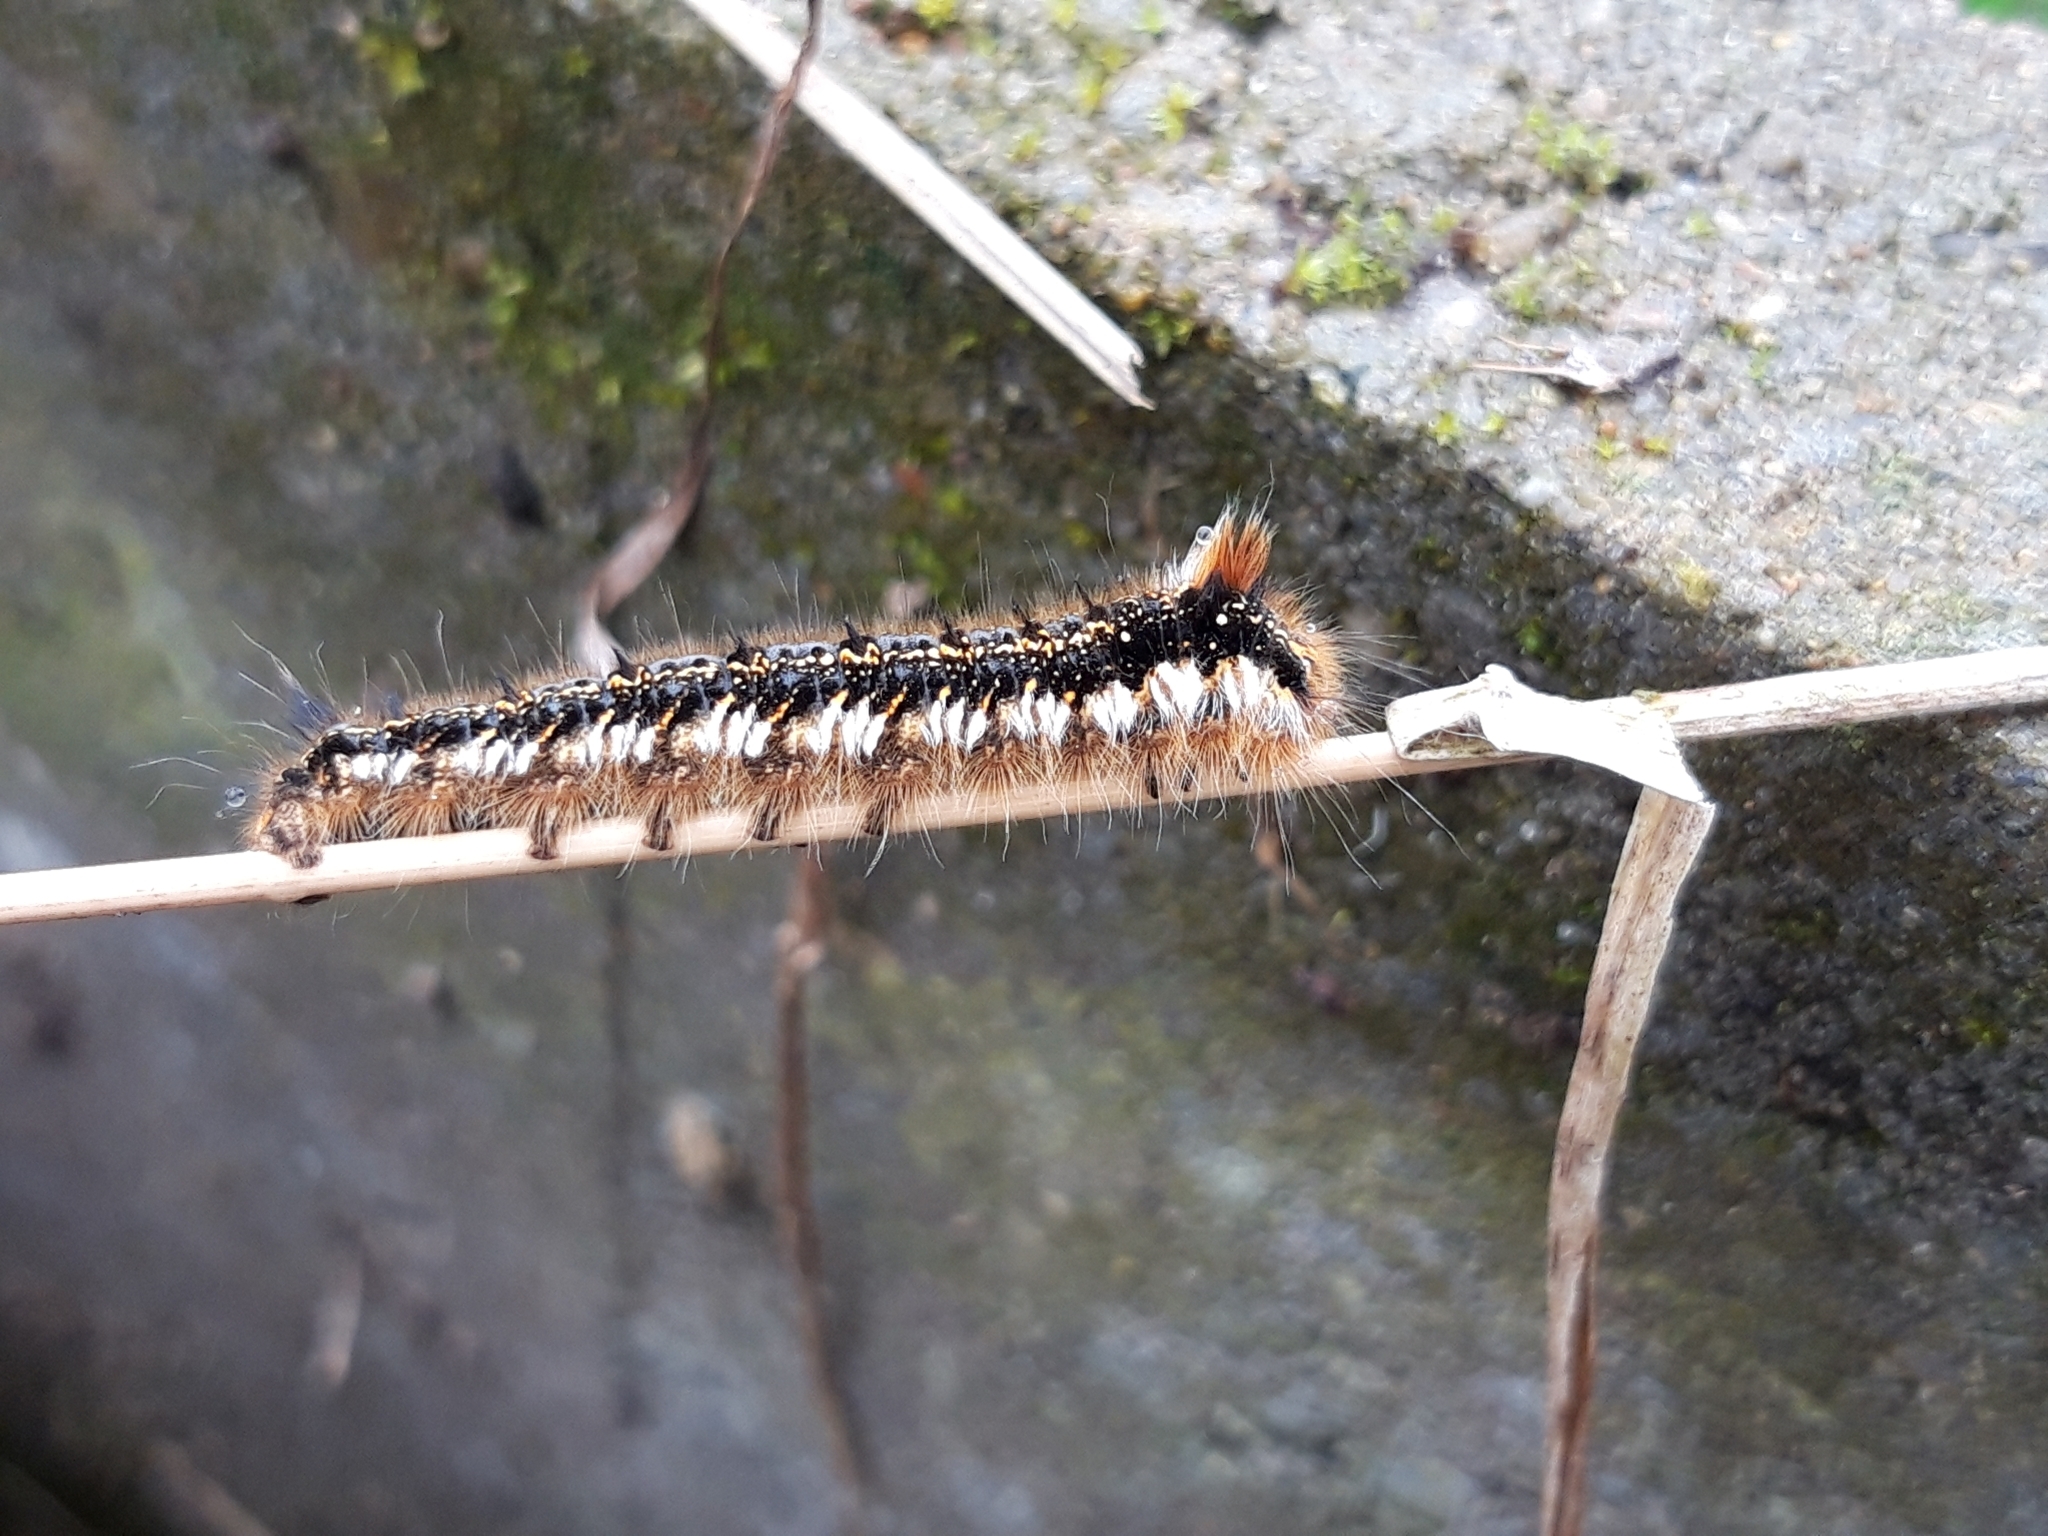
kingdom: Animalia
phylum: Arthropoda
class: Insecta
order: Lepidoptera
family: Lasiocampidae
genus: Euthrix
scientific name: Euthrix potatoria
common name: Drinker
